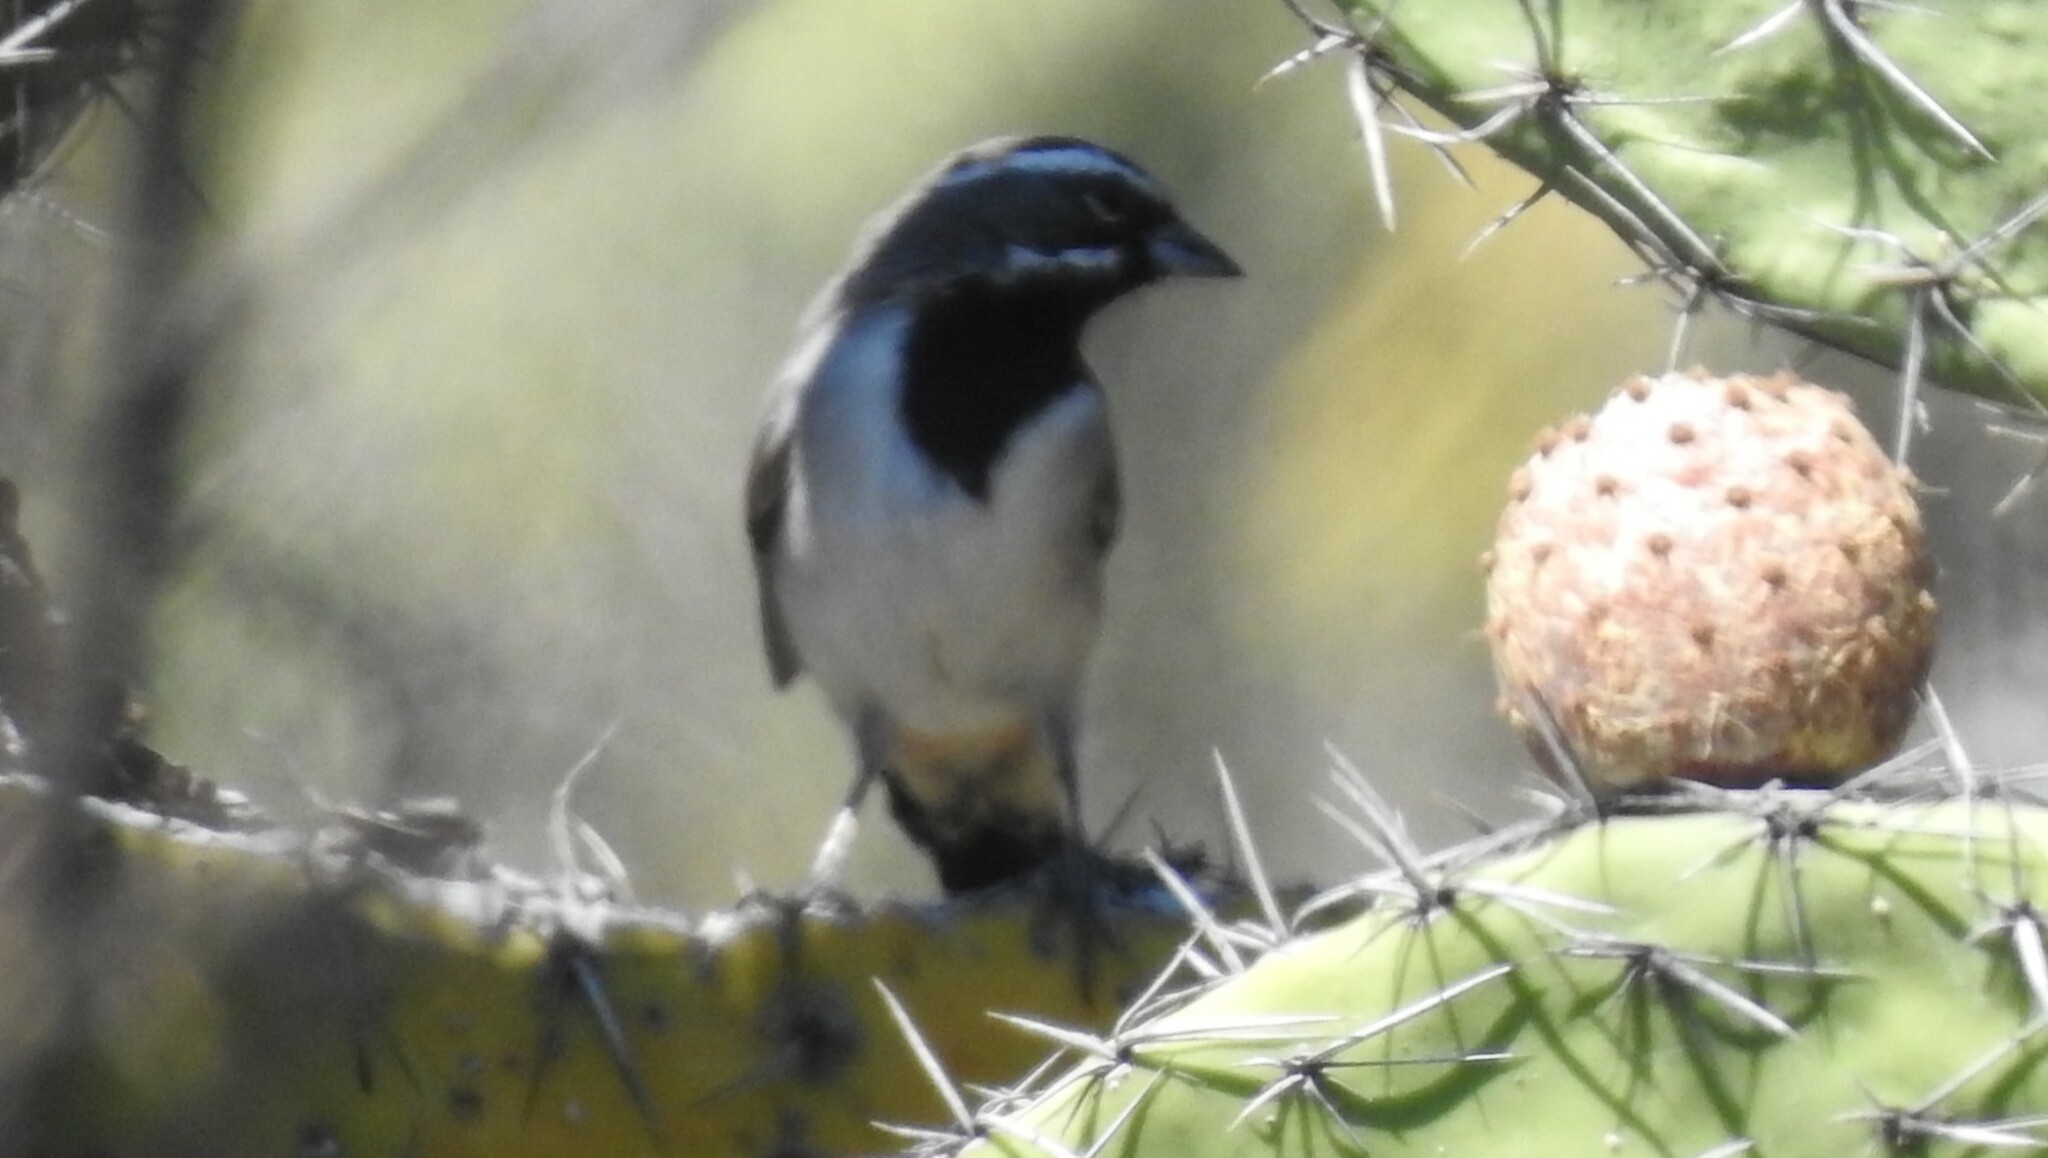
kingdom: Animalia
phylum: Chordata
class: Aves
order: Passeriformes
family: Passerellidae
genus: Amphispiza
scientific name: Amphispiza bilineata
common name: Black-throated sparrow
